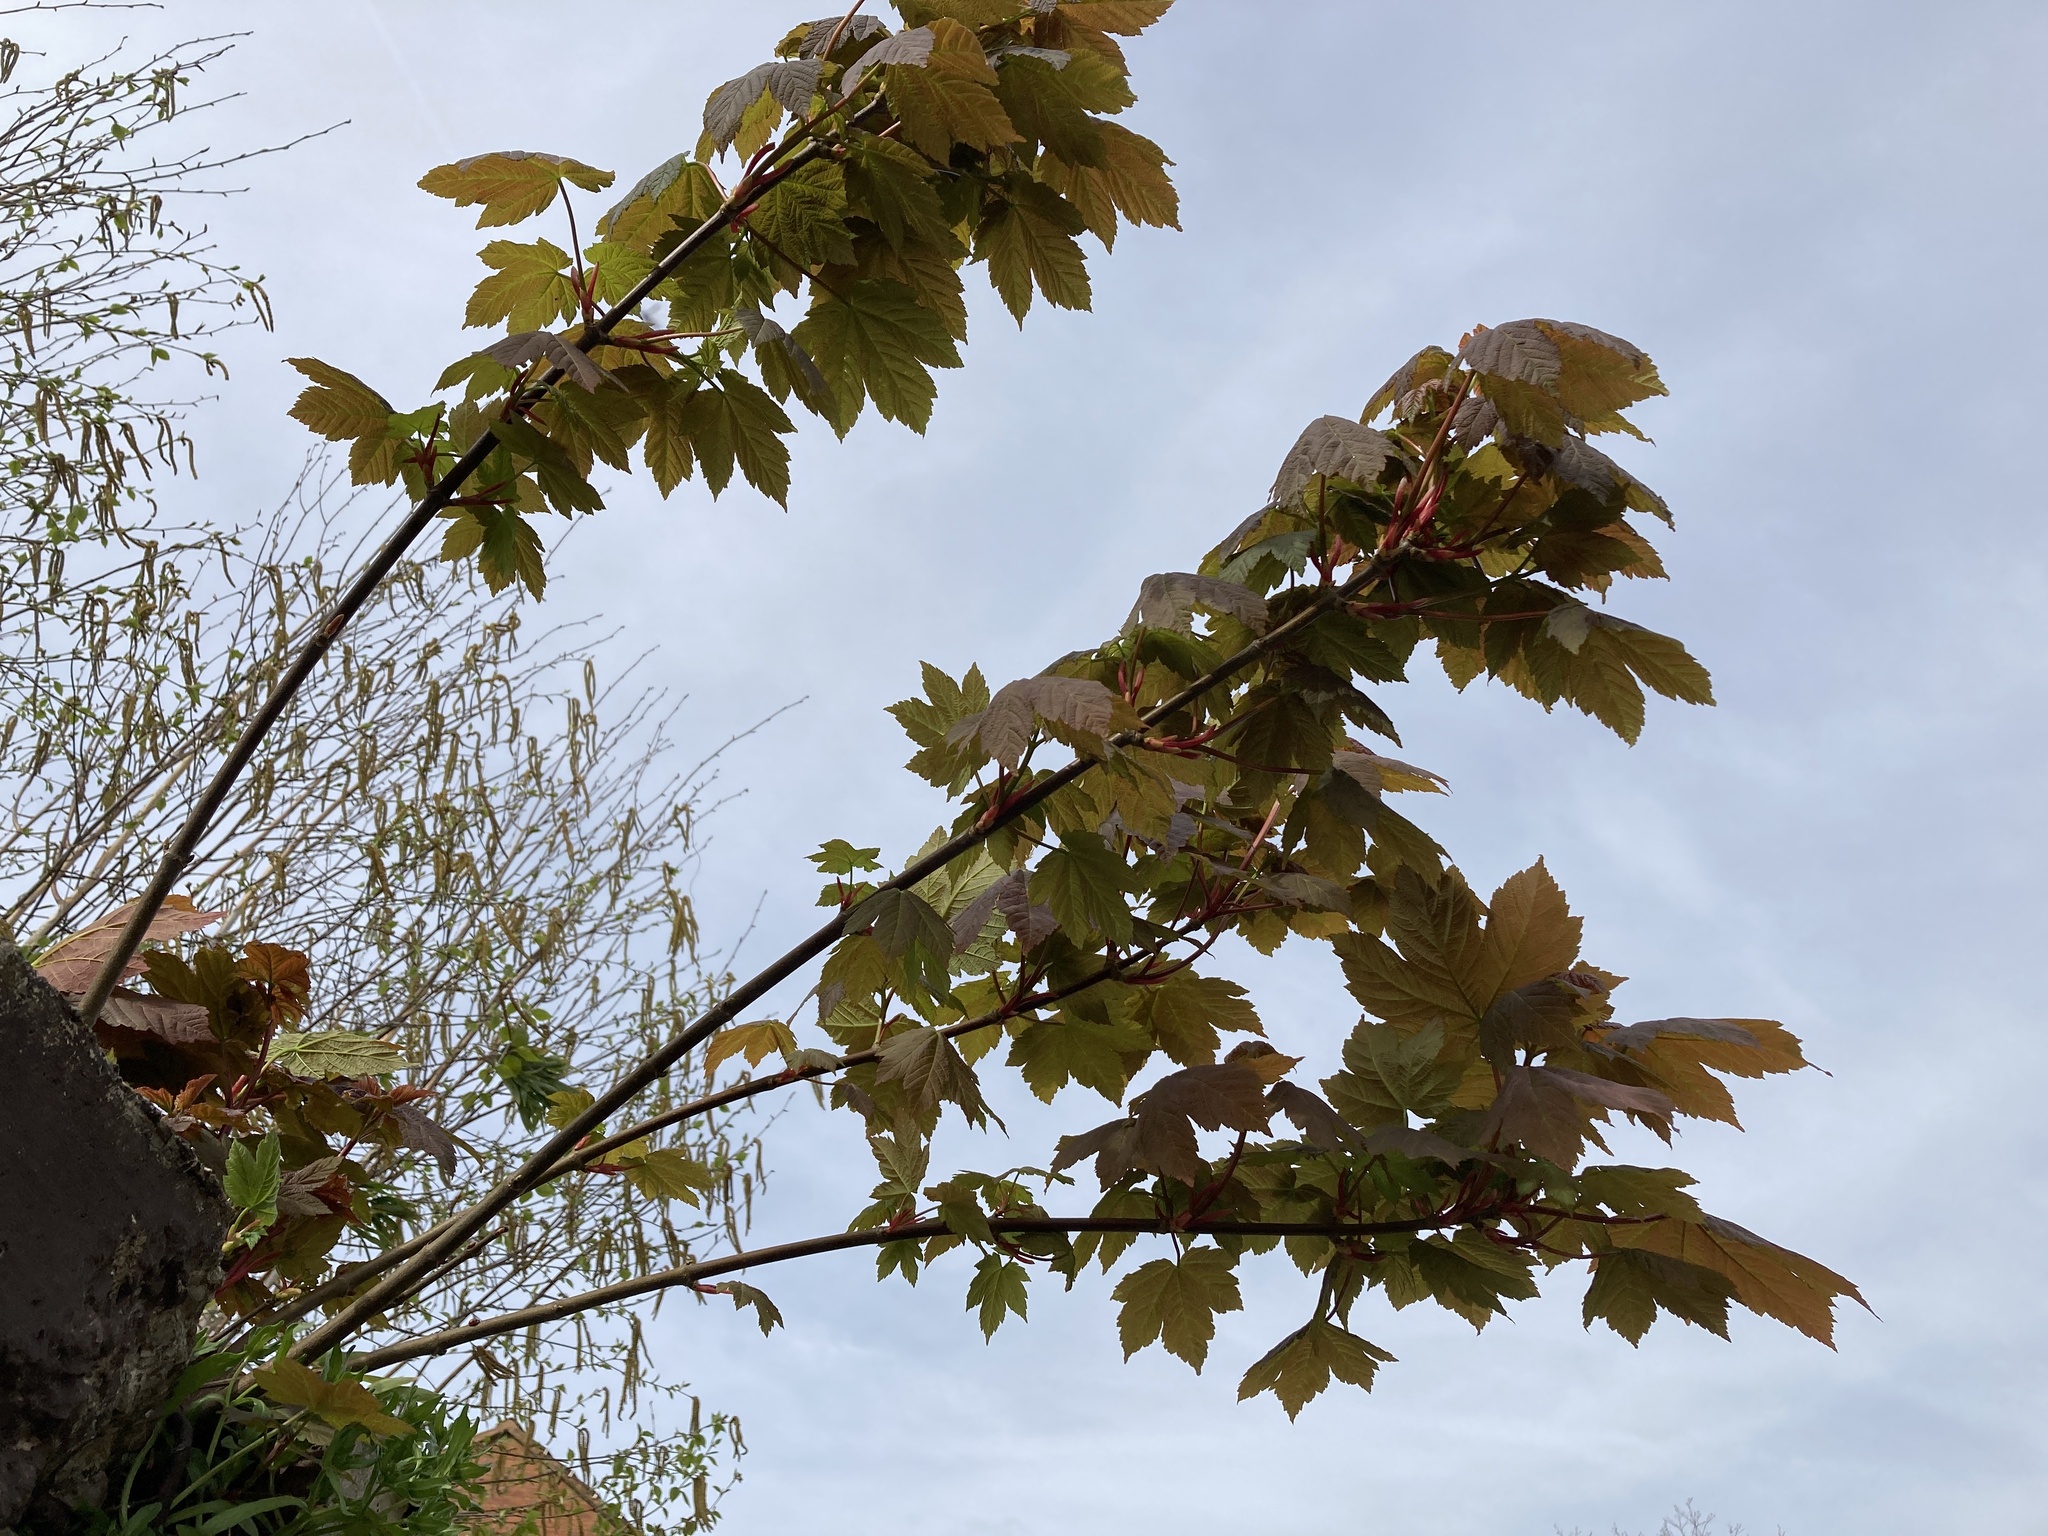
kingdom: Plantae
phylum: Tracheophyta
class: Magnoliopsida
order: Sapindales
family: Sapindaceae
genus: Acer
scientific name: Acer pseudoplatanus
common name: Sycamore
